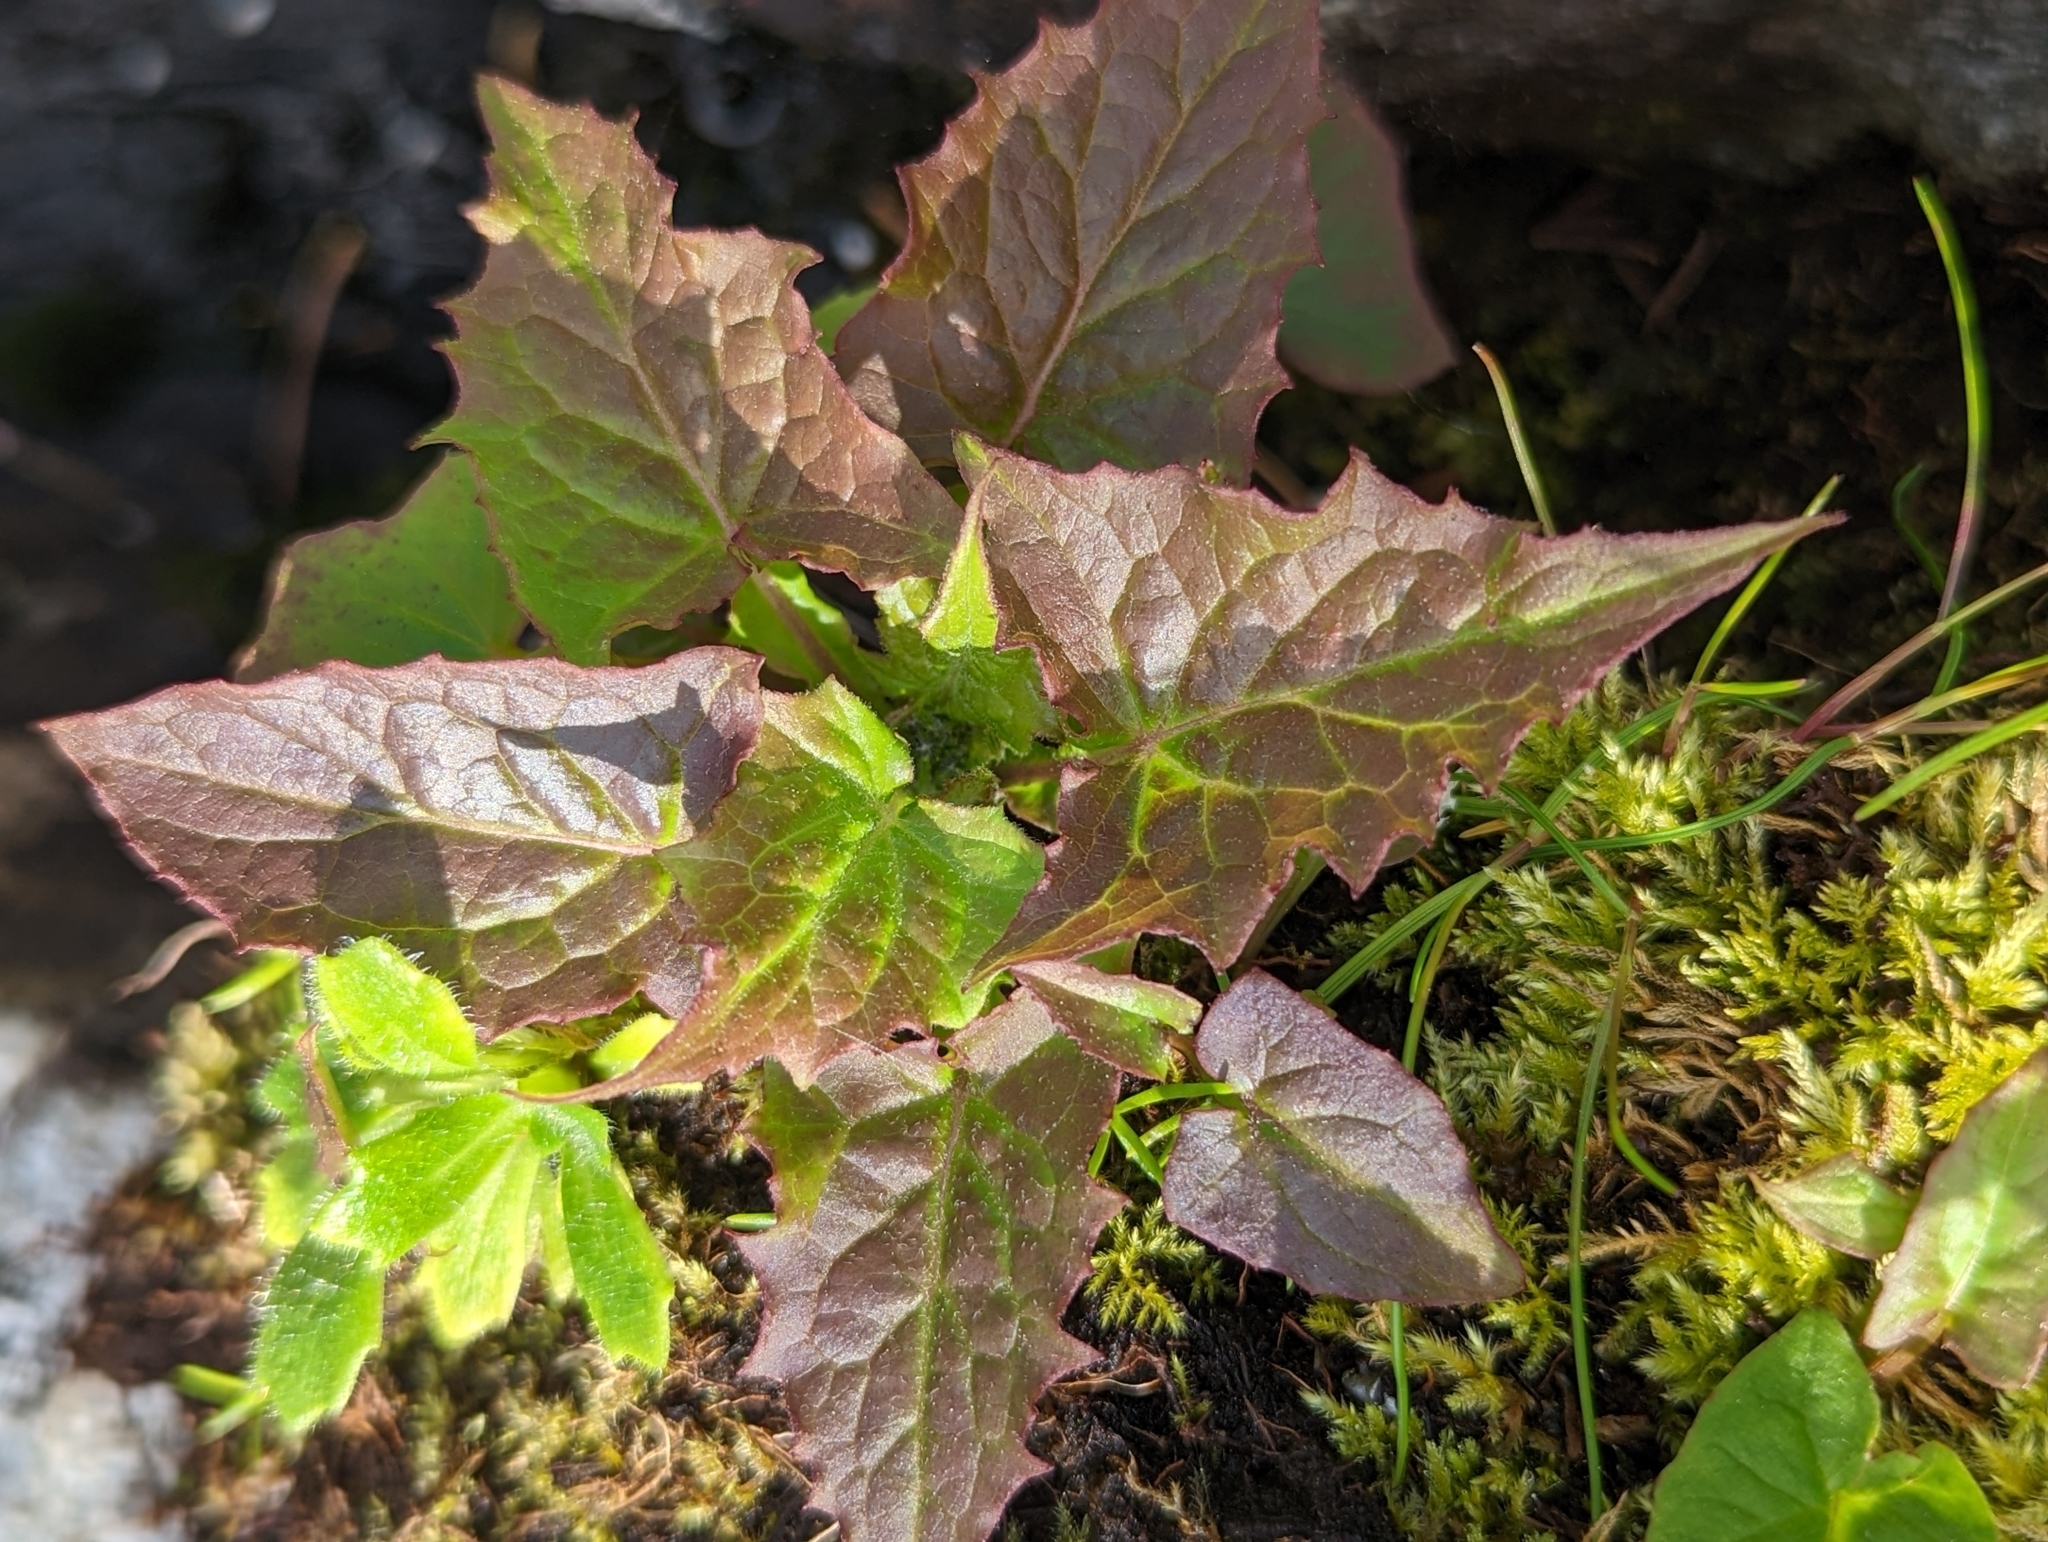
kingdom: Plantae
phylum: Tracheophyta
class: Magnoliopsida
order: Asterales
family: Asteraceae
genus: Nabalus
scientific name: Nabalus hastatus
